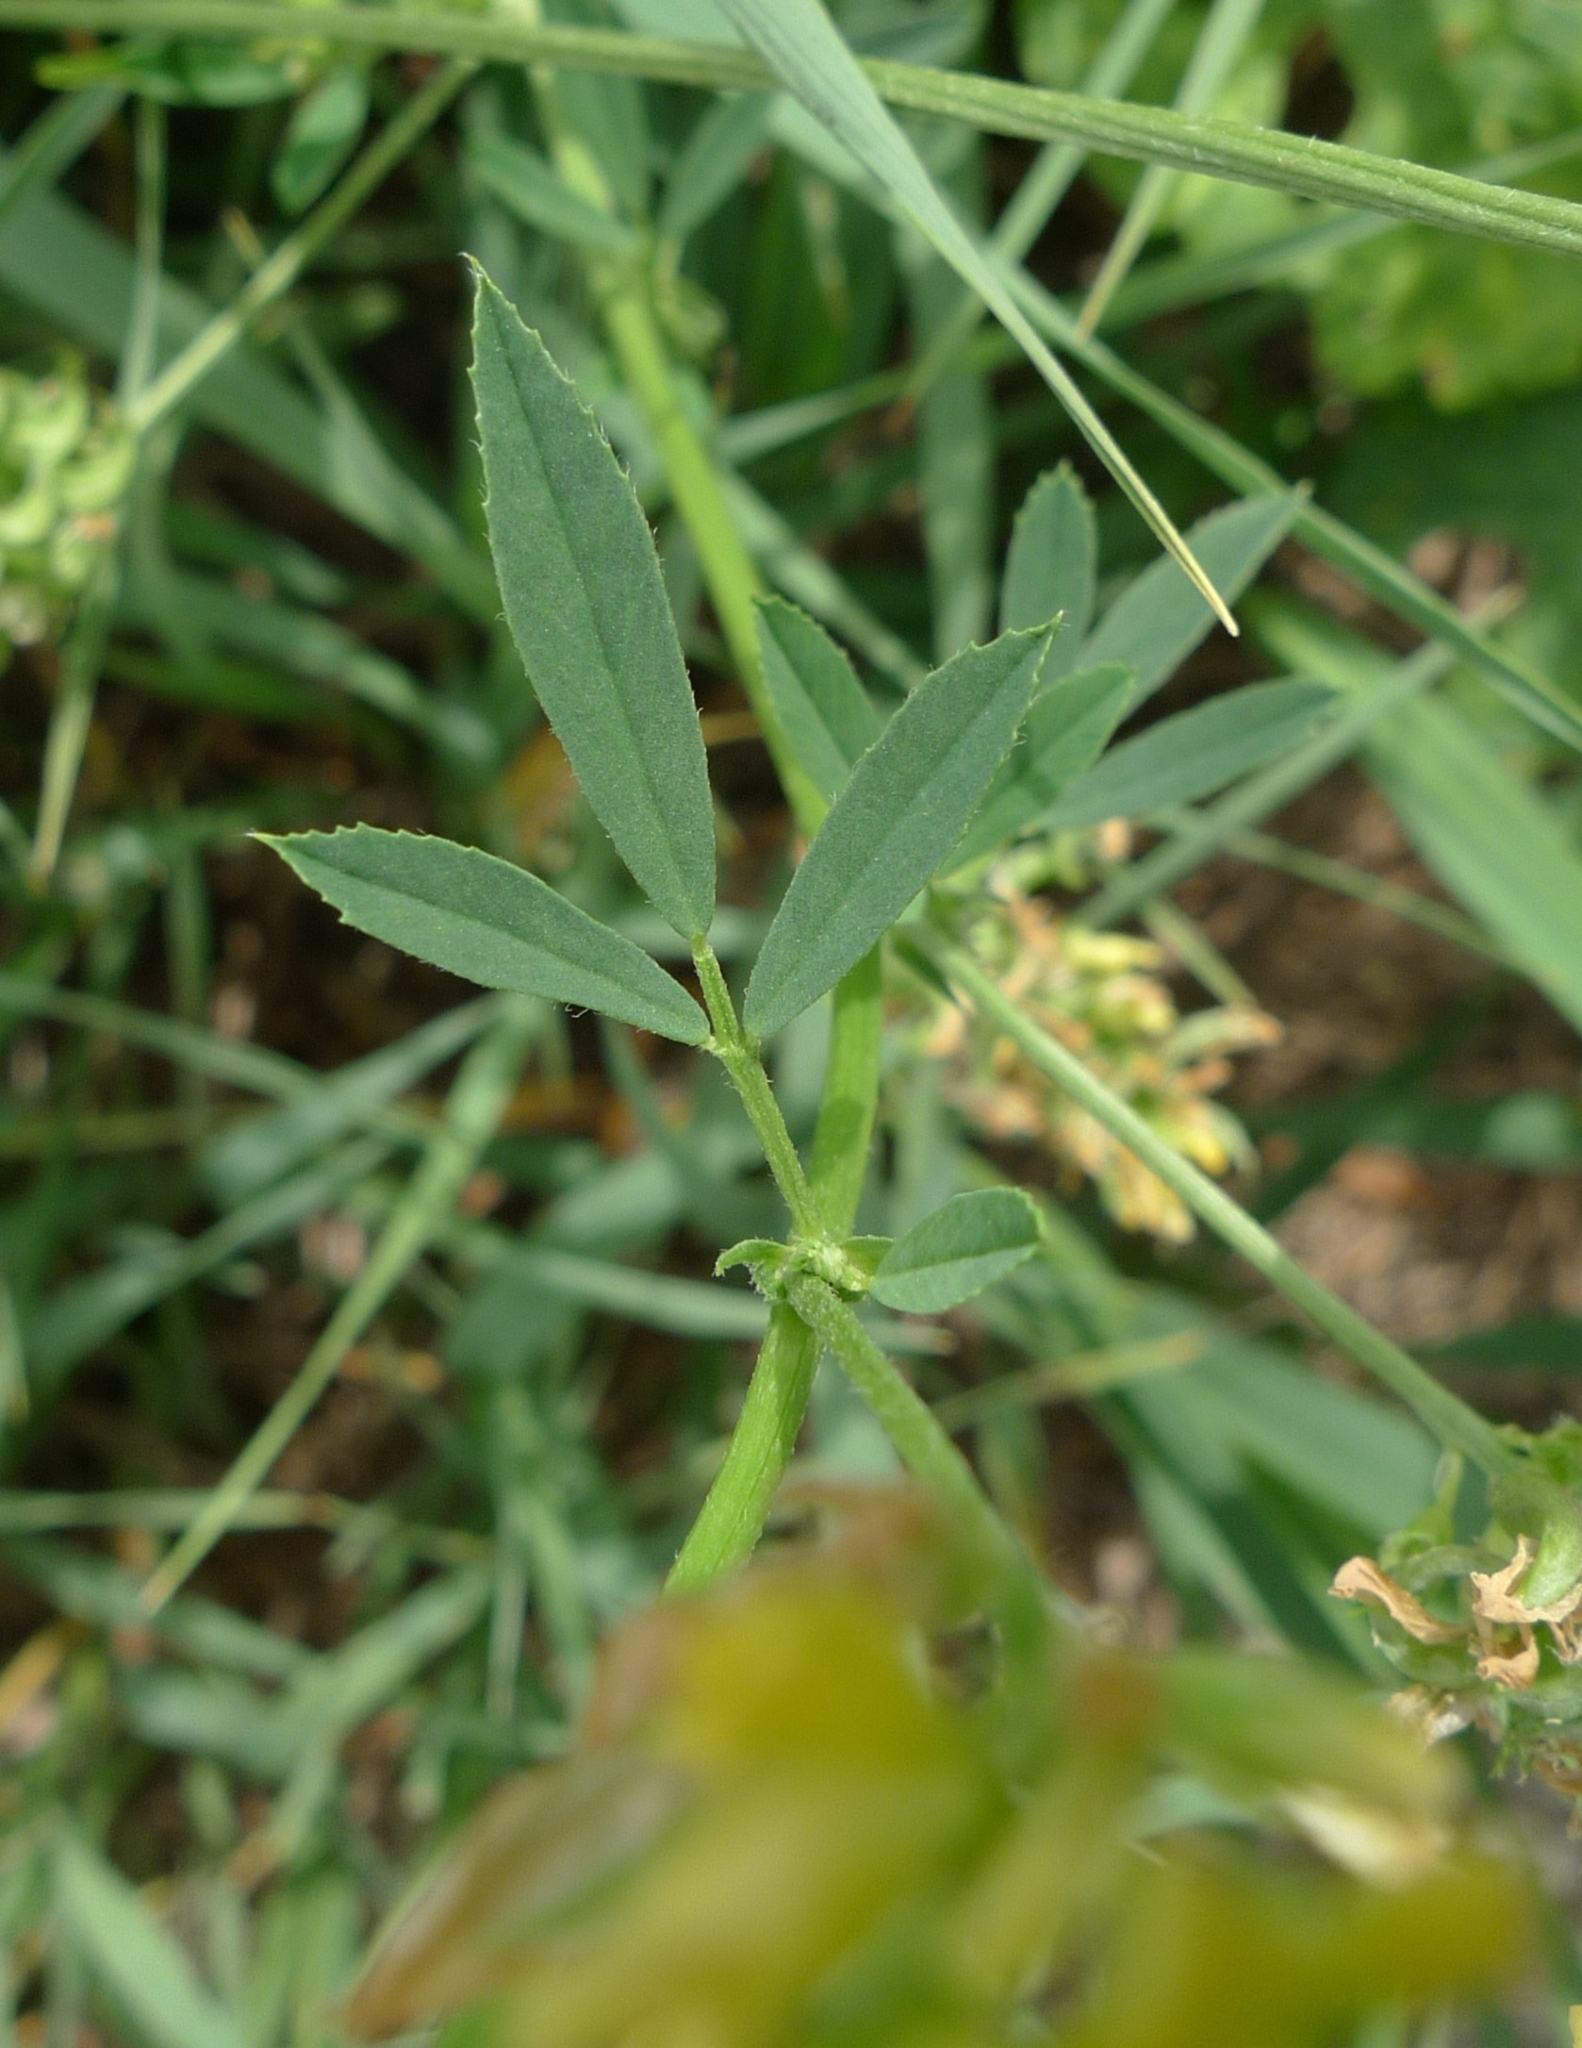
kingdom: Plantae
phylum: Tracheophyta
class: Magnoliopsida
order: Fabales
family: Fabaceae
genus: Medicago
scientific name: Medicago falcata
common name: Sickle medick
